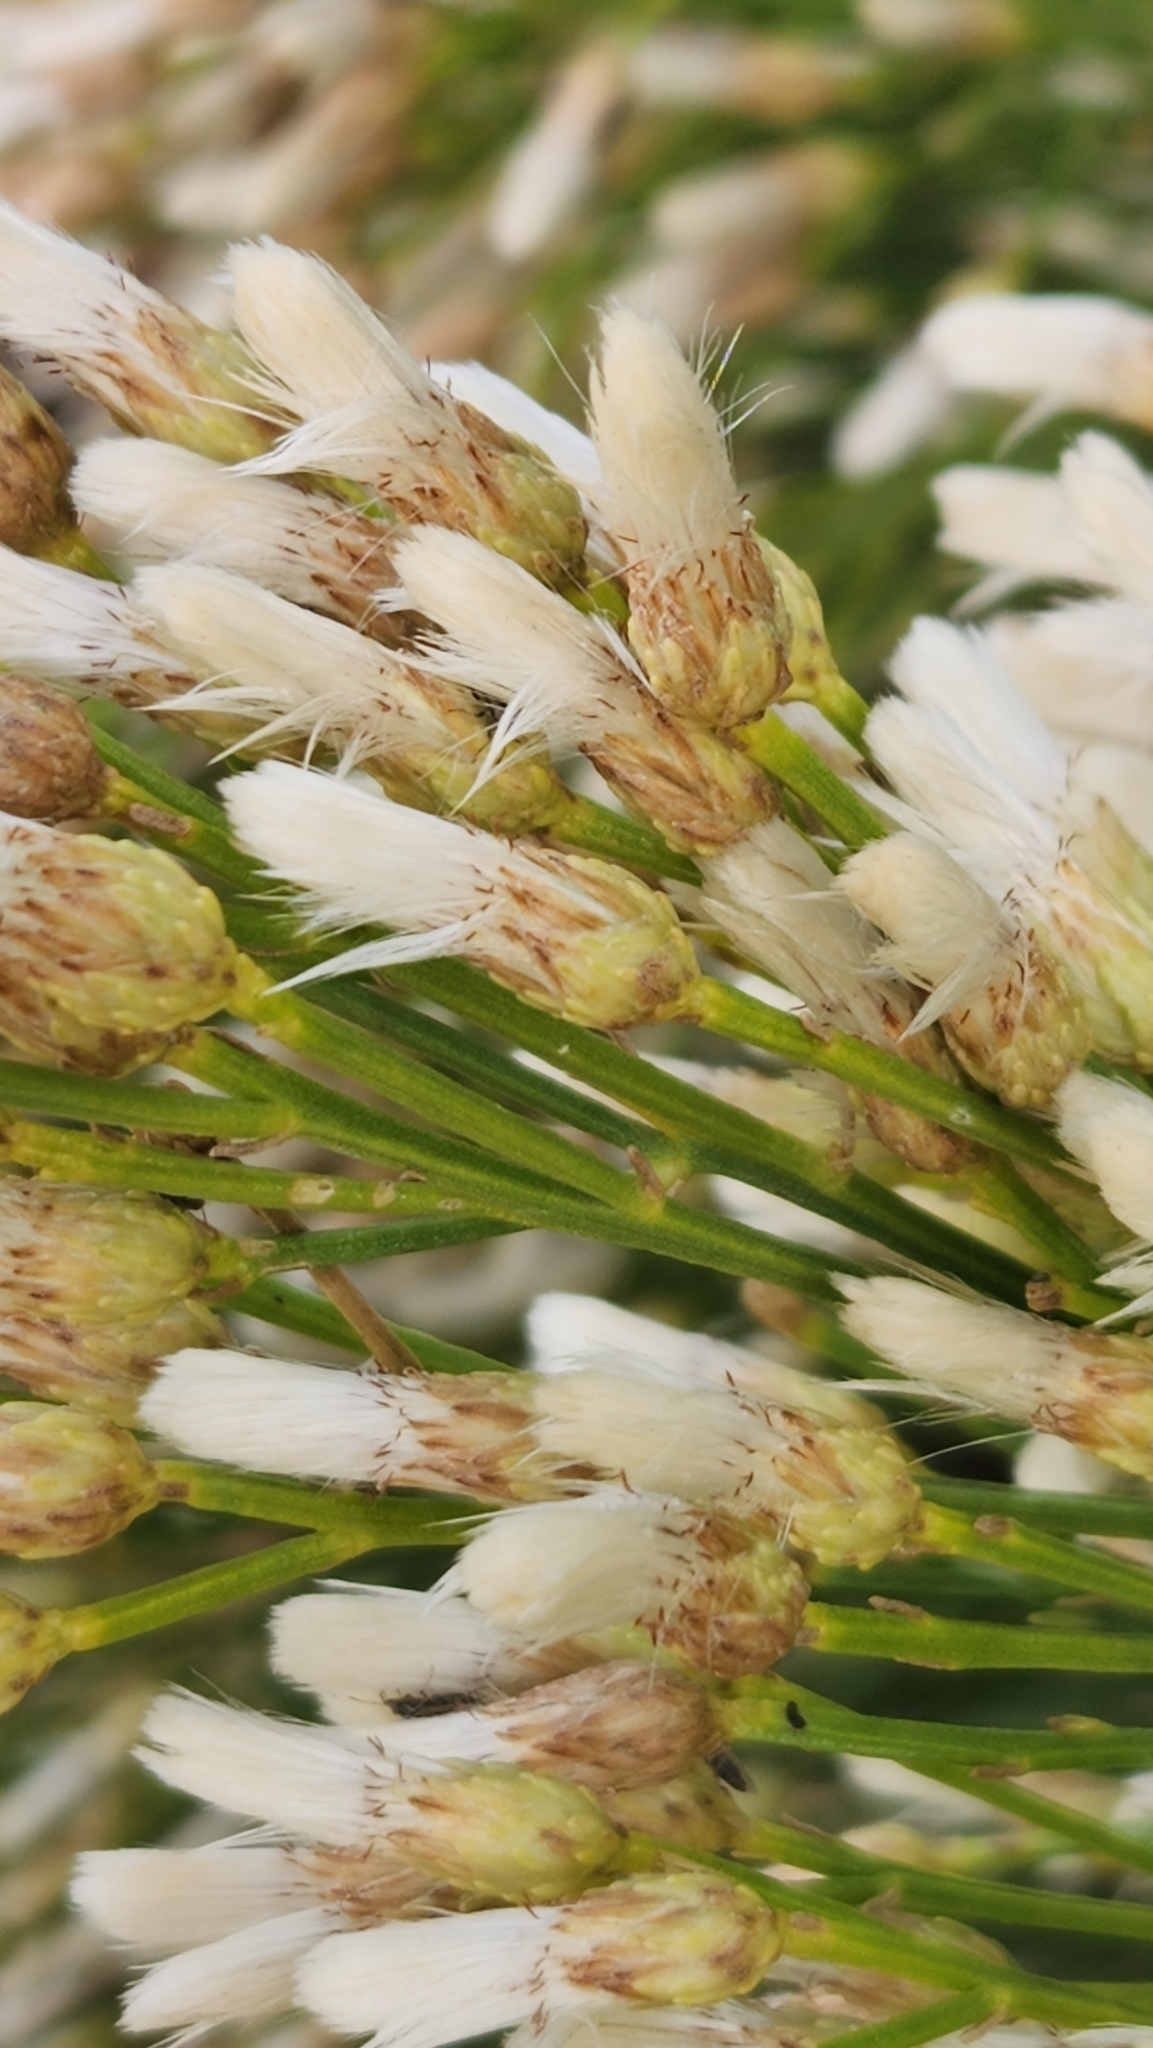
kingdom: Plantae
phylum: Tracheophyta
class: Magnoliopsida
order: Asterales
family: Asteraceae
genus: Baccharis
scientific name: Baccharis sarothroides
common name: Desert-broom
